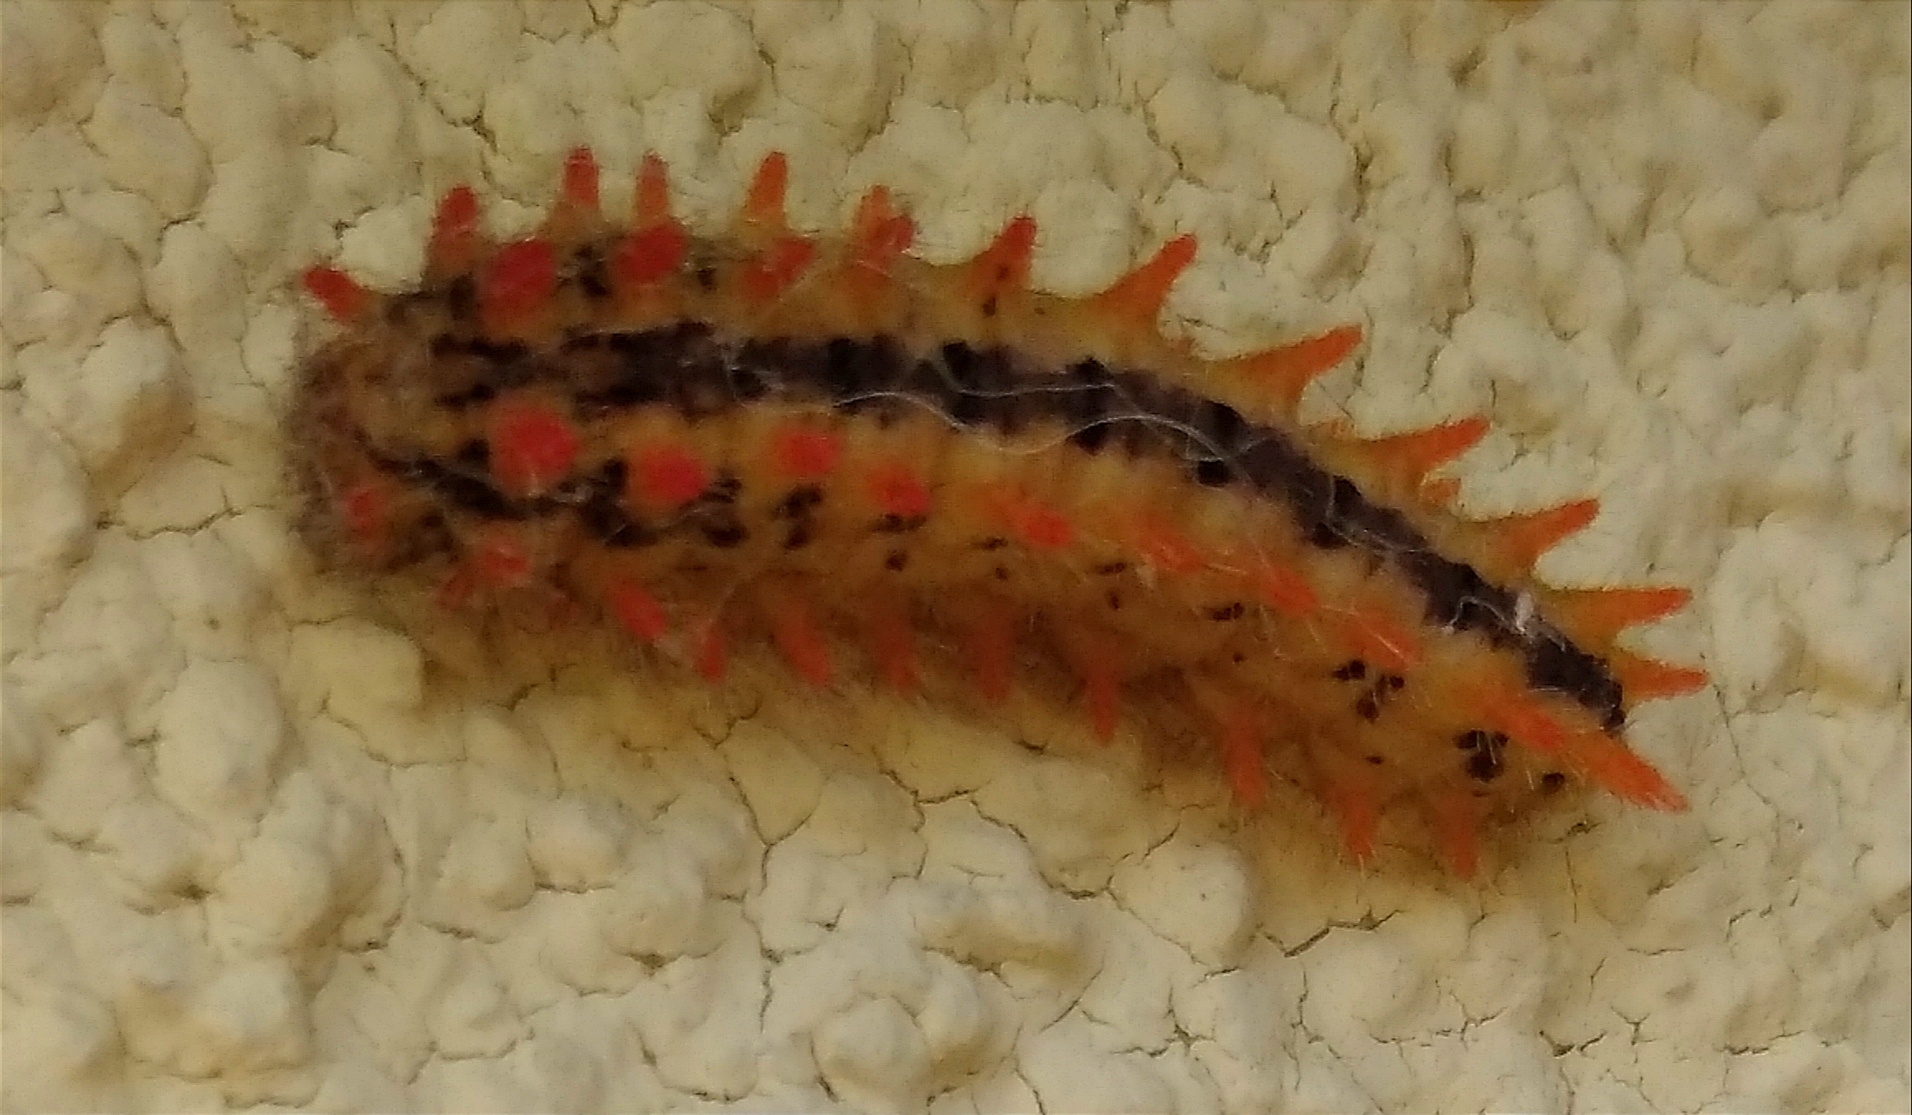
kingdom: Animalia
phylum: Arthropoda
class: Insecta
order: Lepidoptera
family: Papilionidae
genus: Zerynthia
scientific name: Zerynthia cerisy
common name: Eastern festoon
